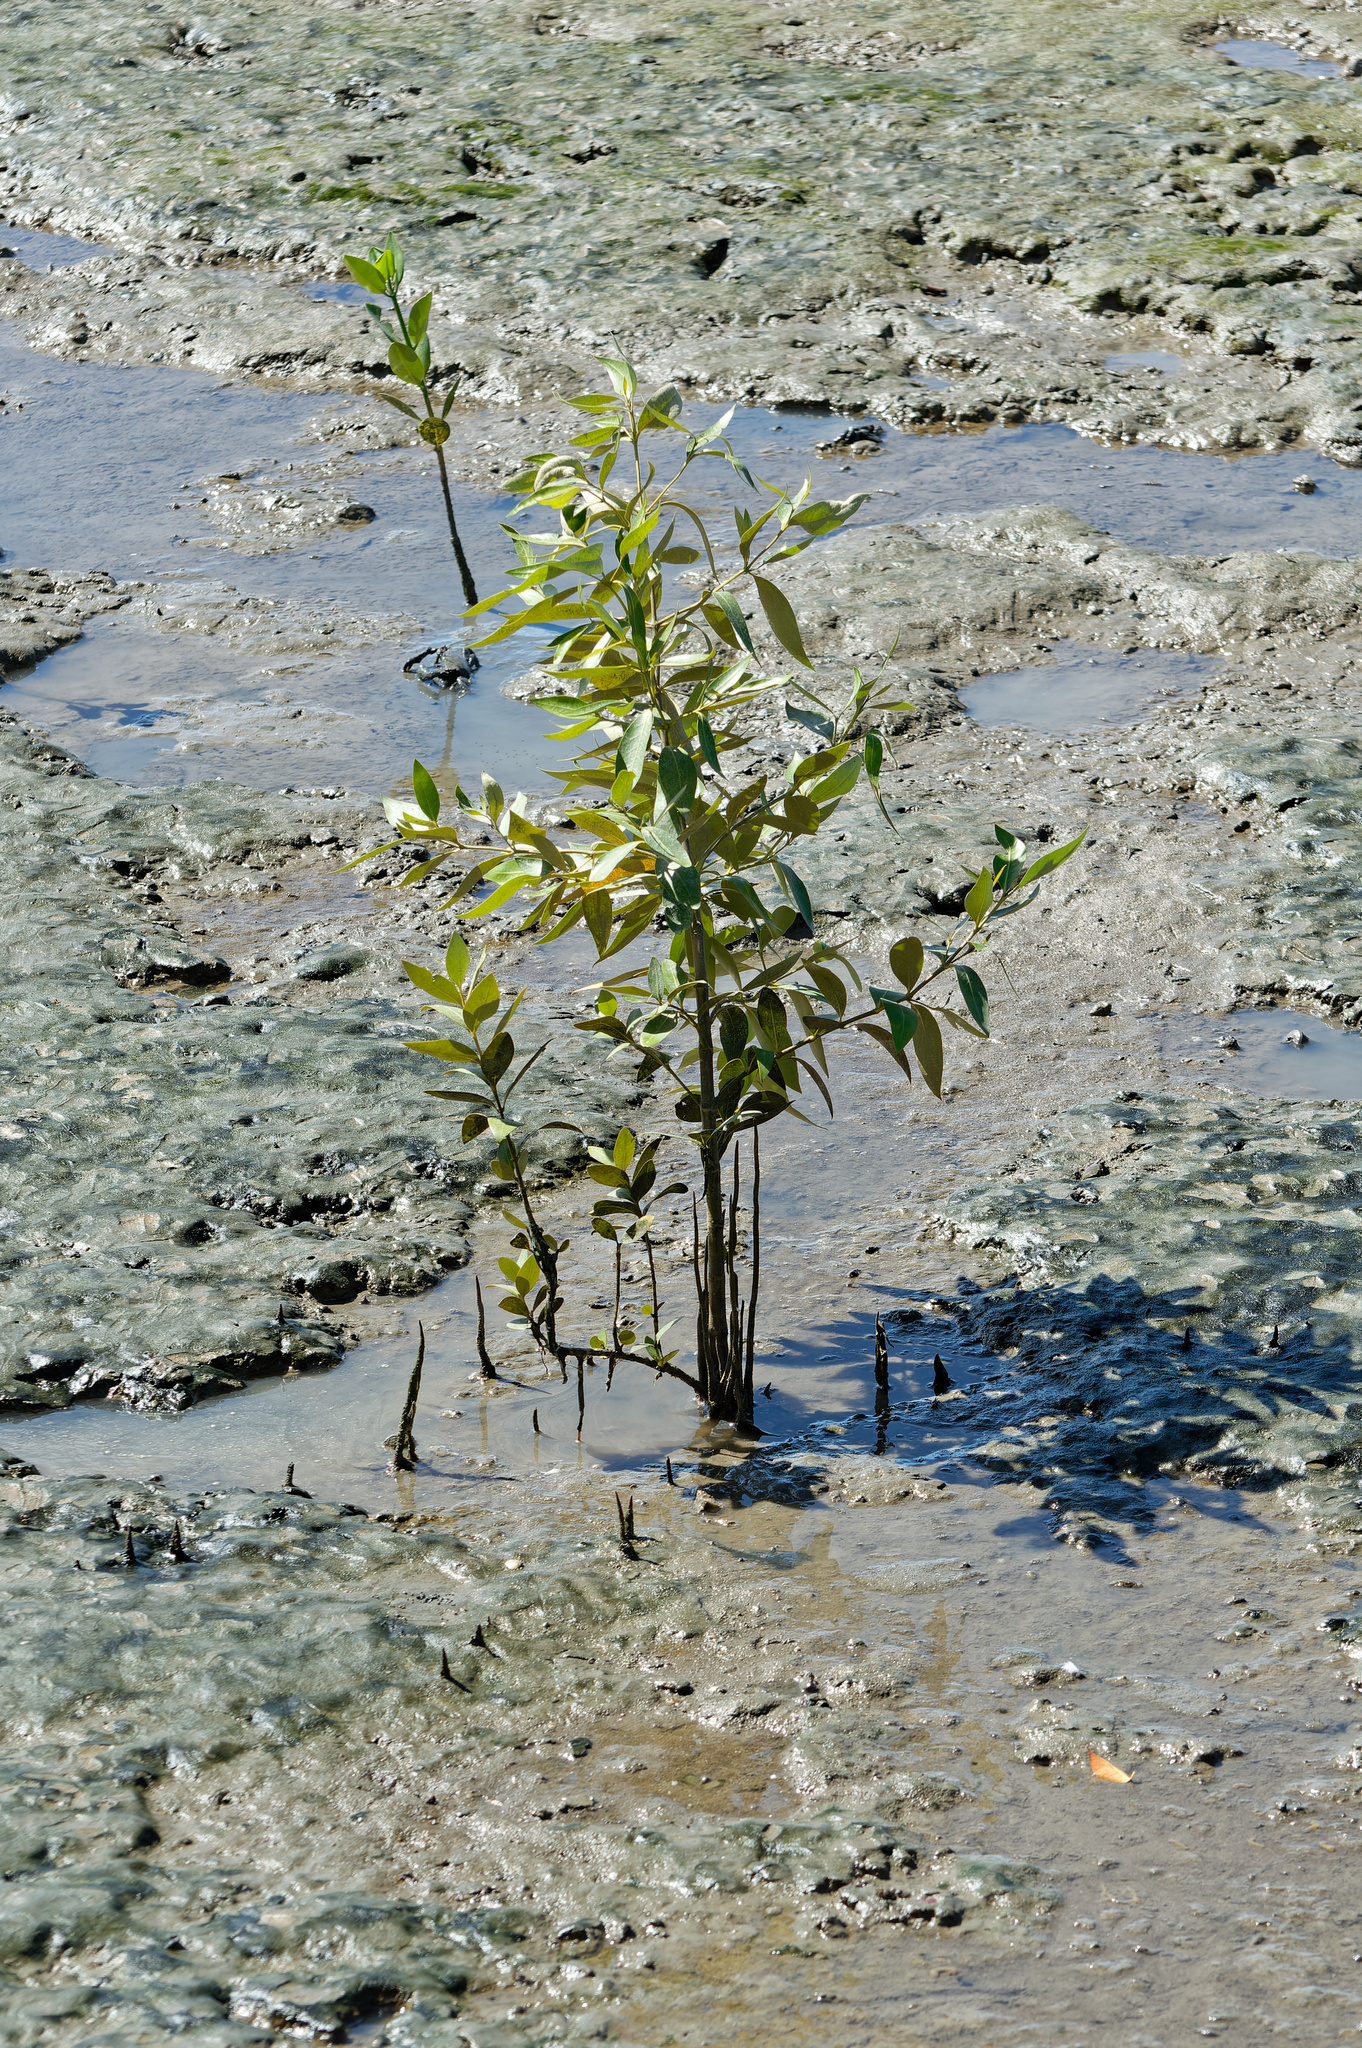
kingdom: Plantae
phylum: Tracheophyta
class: Magnoliopsida
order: Lamiales
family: Acanthaceae
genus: Avicennia
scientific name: Avicennia marina
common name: Gray mangrove
